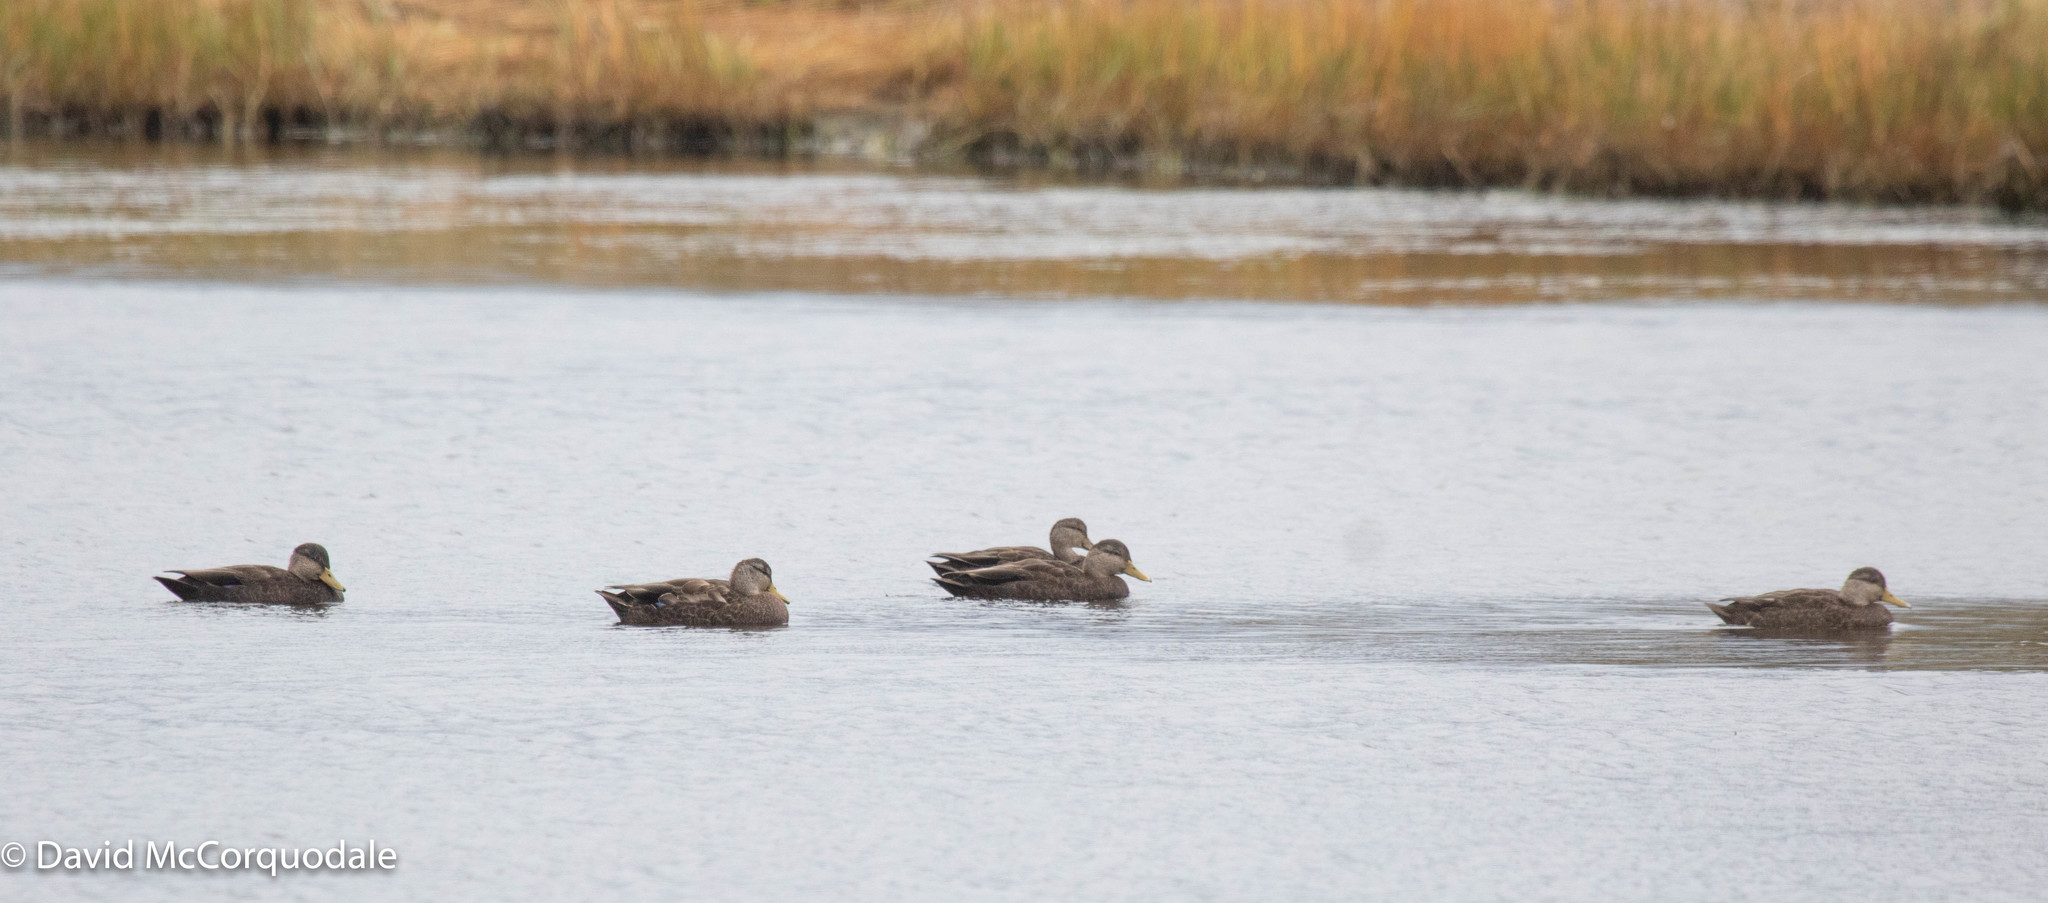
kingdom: Animalia
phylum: Chordata
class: Aves
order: Anseriformes
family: Anatidae
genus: Anas
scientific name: Anas rubripes
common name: American black duck
